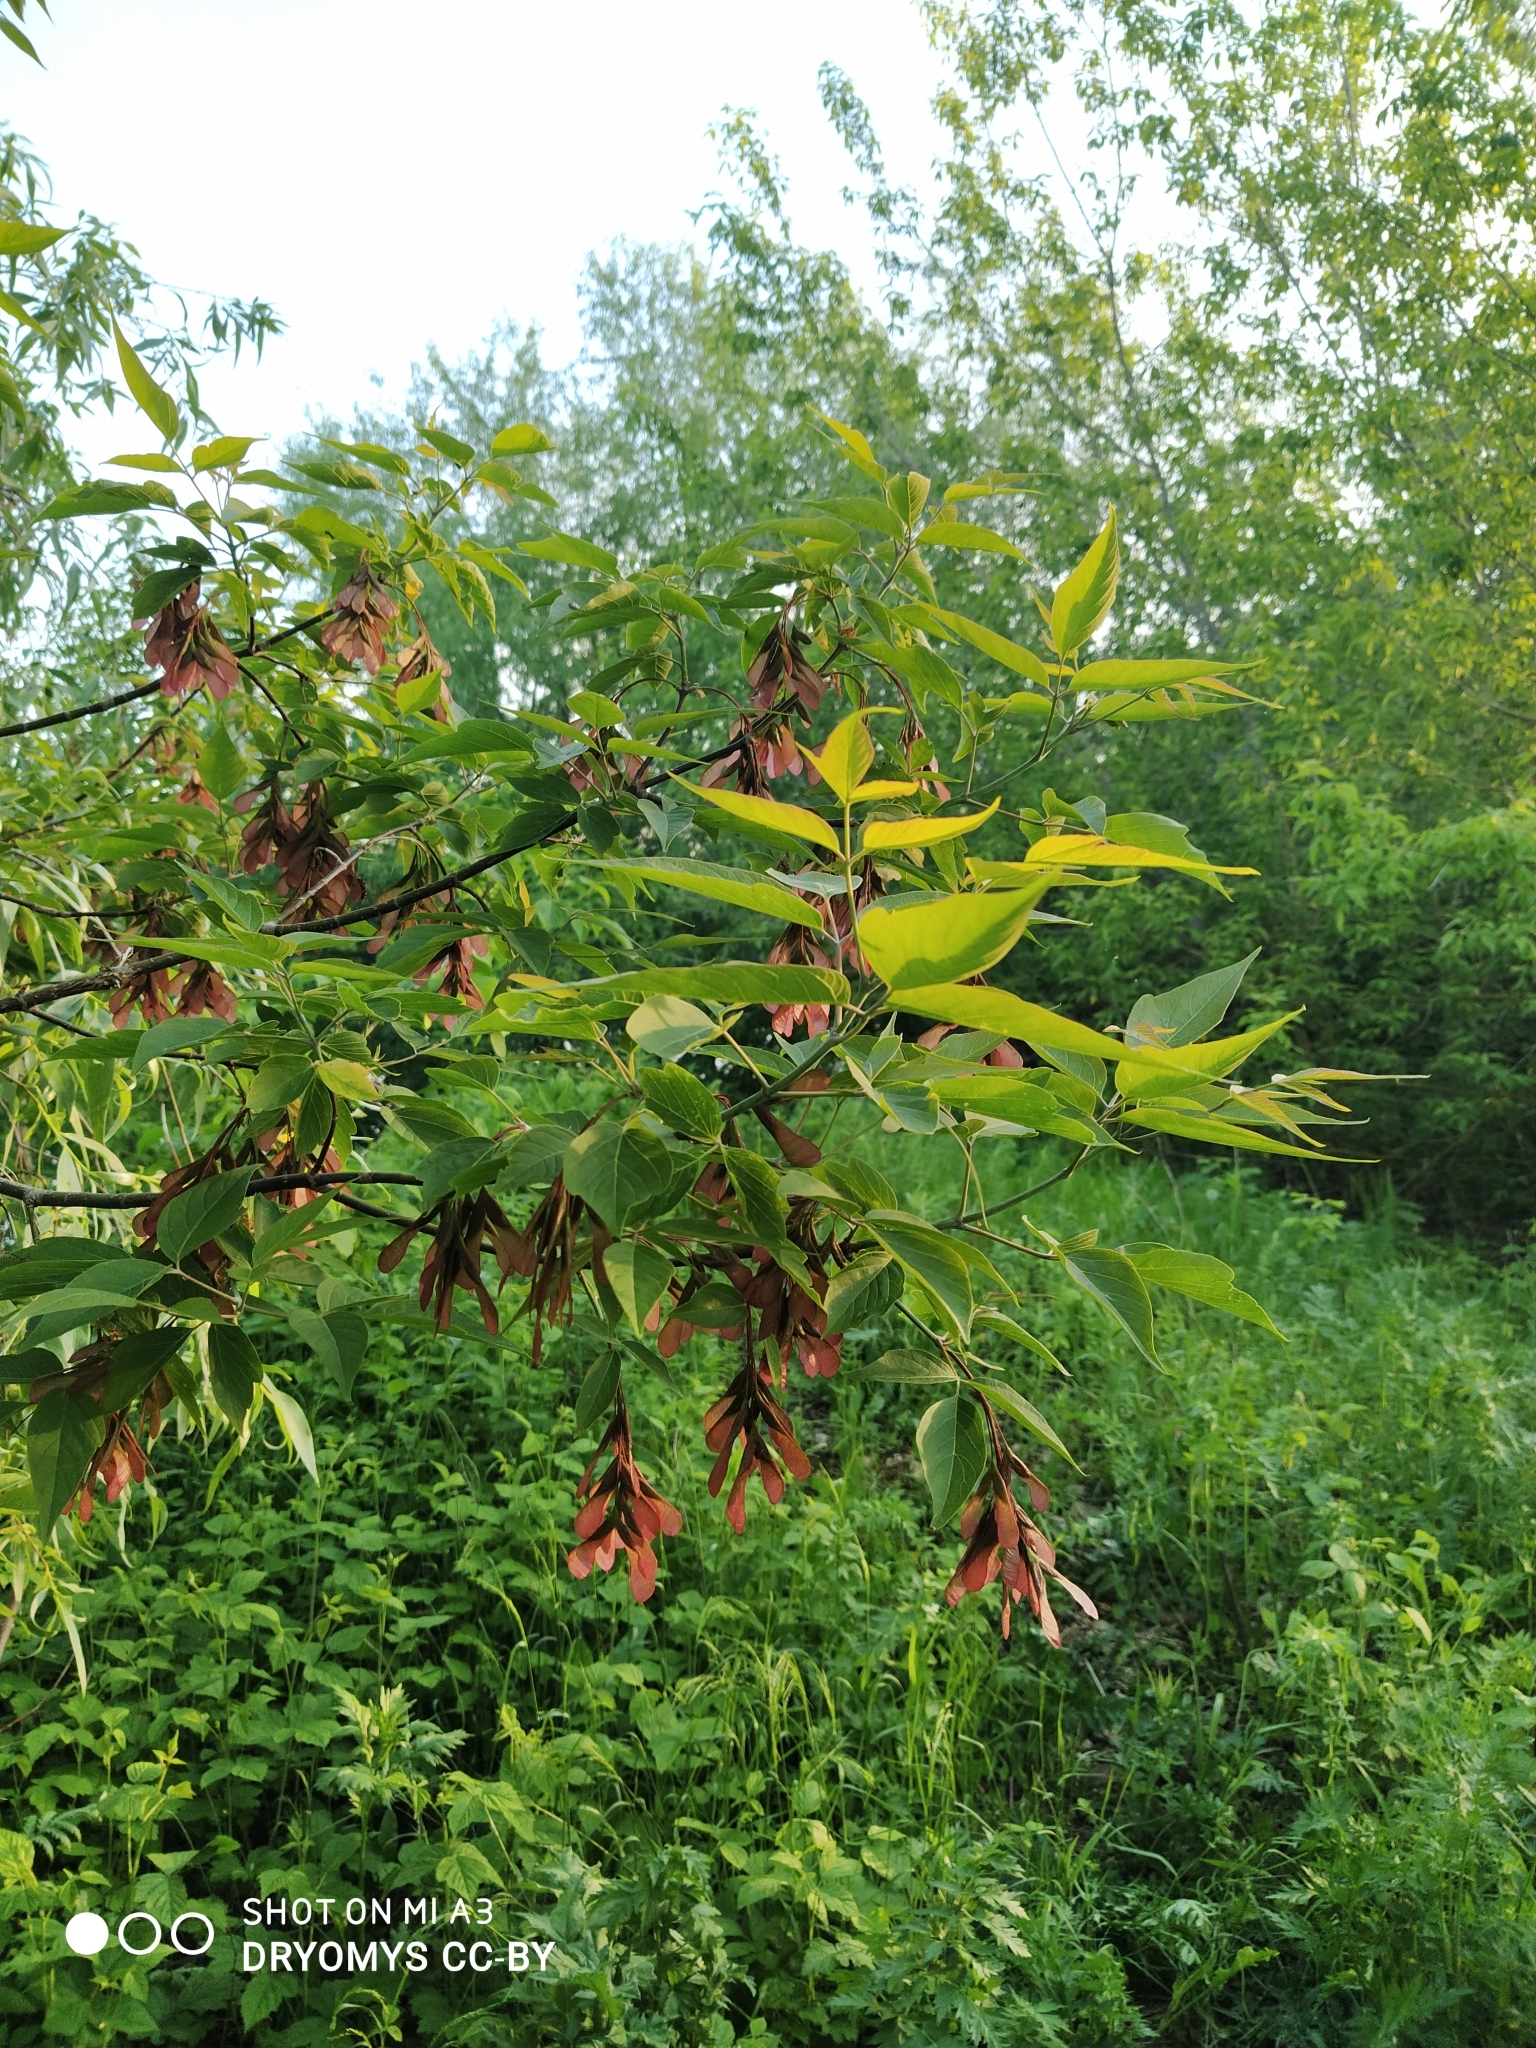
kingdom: Plantae
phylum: Tracheophyta
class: Magnoliopsida
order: Sapindales
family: Sapindaceae
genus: Acer
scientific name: Acer negundo
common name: Ashleaf maple
